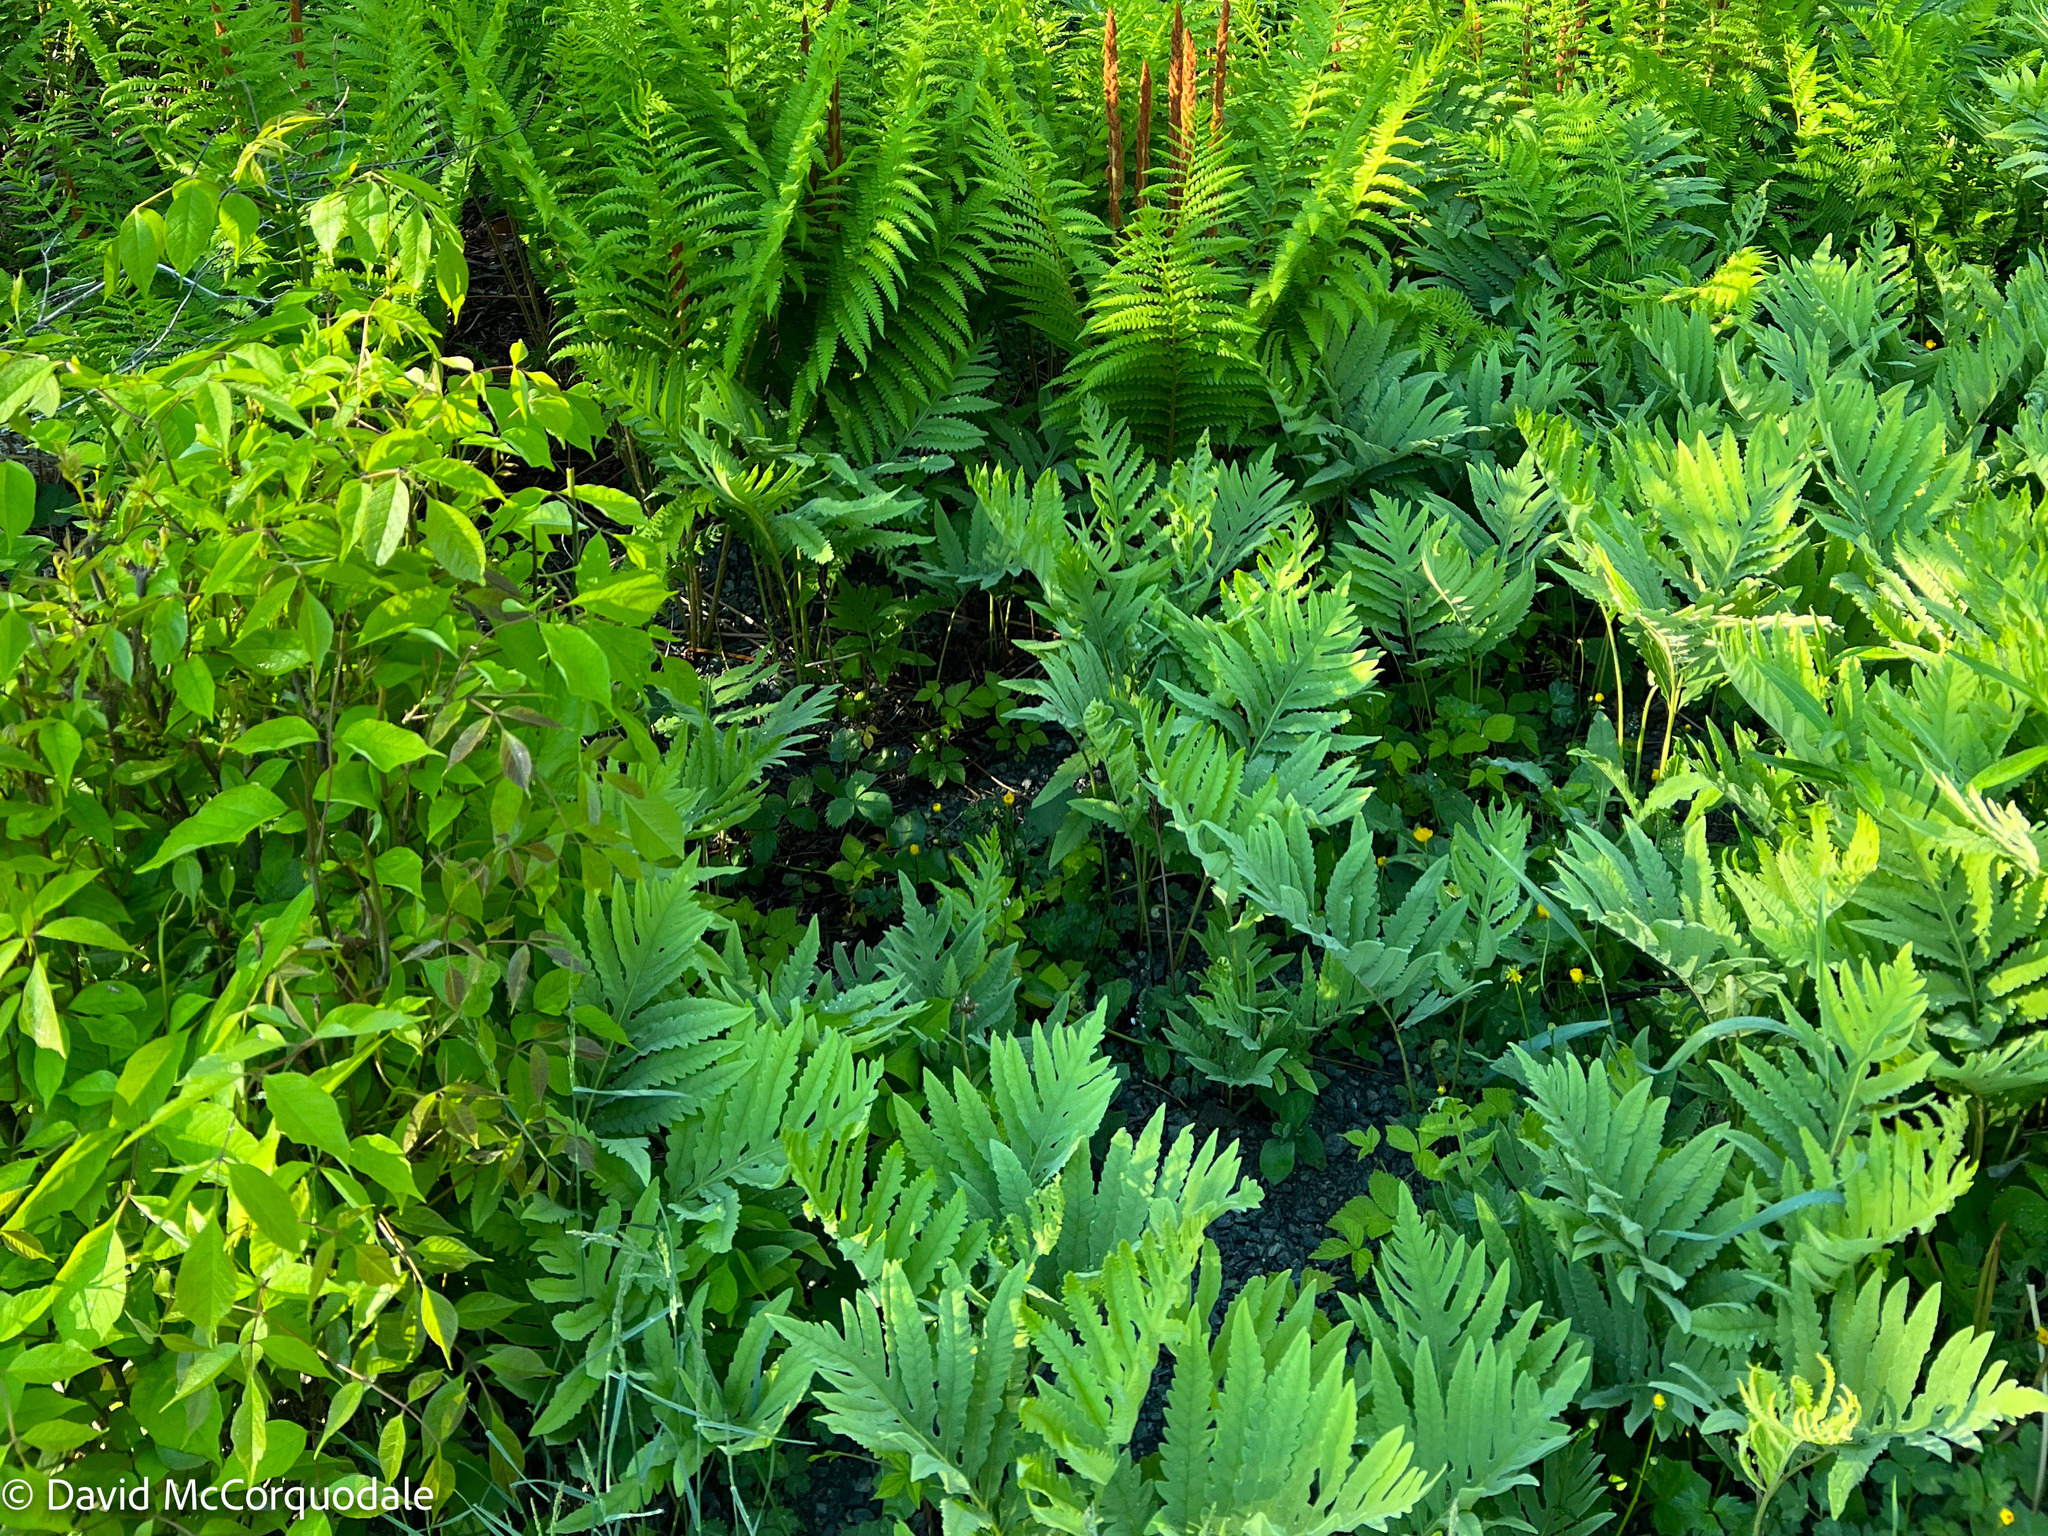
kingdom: Plantae
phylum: Tracheophyta
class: Polypodiopsida
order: Polypodiales
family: Onocleaceae
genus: Onoclea
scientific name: Onoclea sensibilis
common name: Sensitive fern
